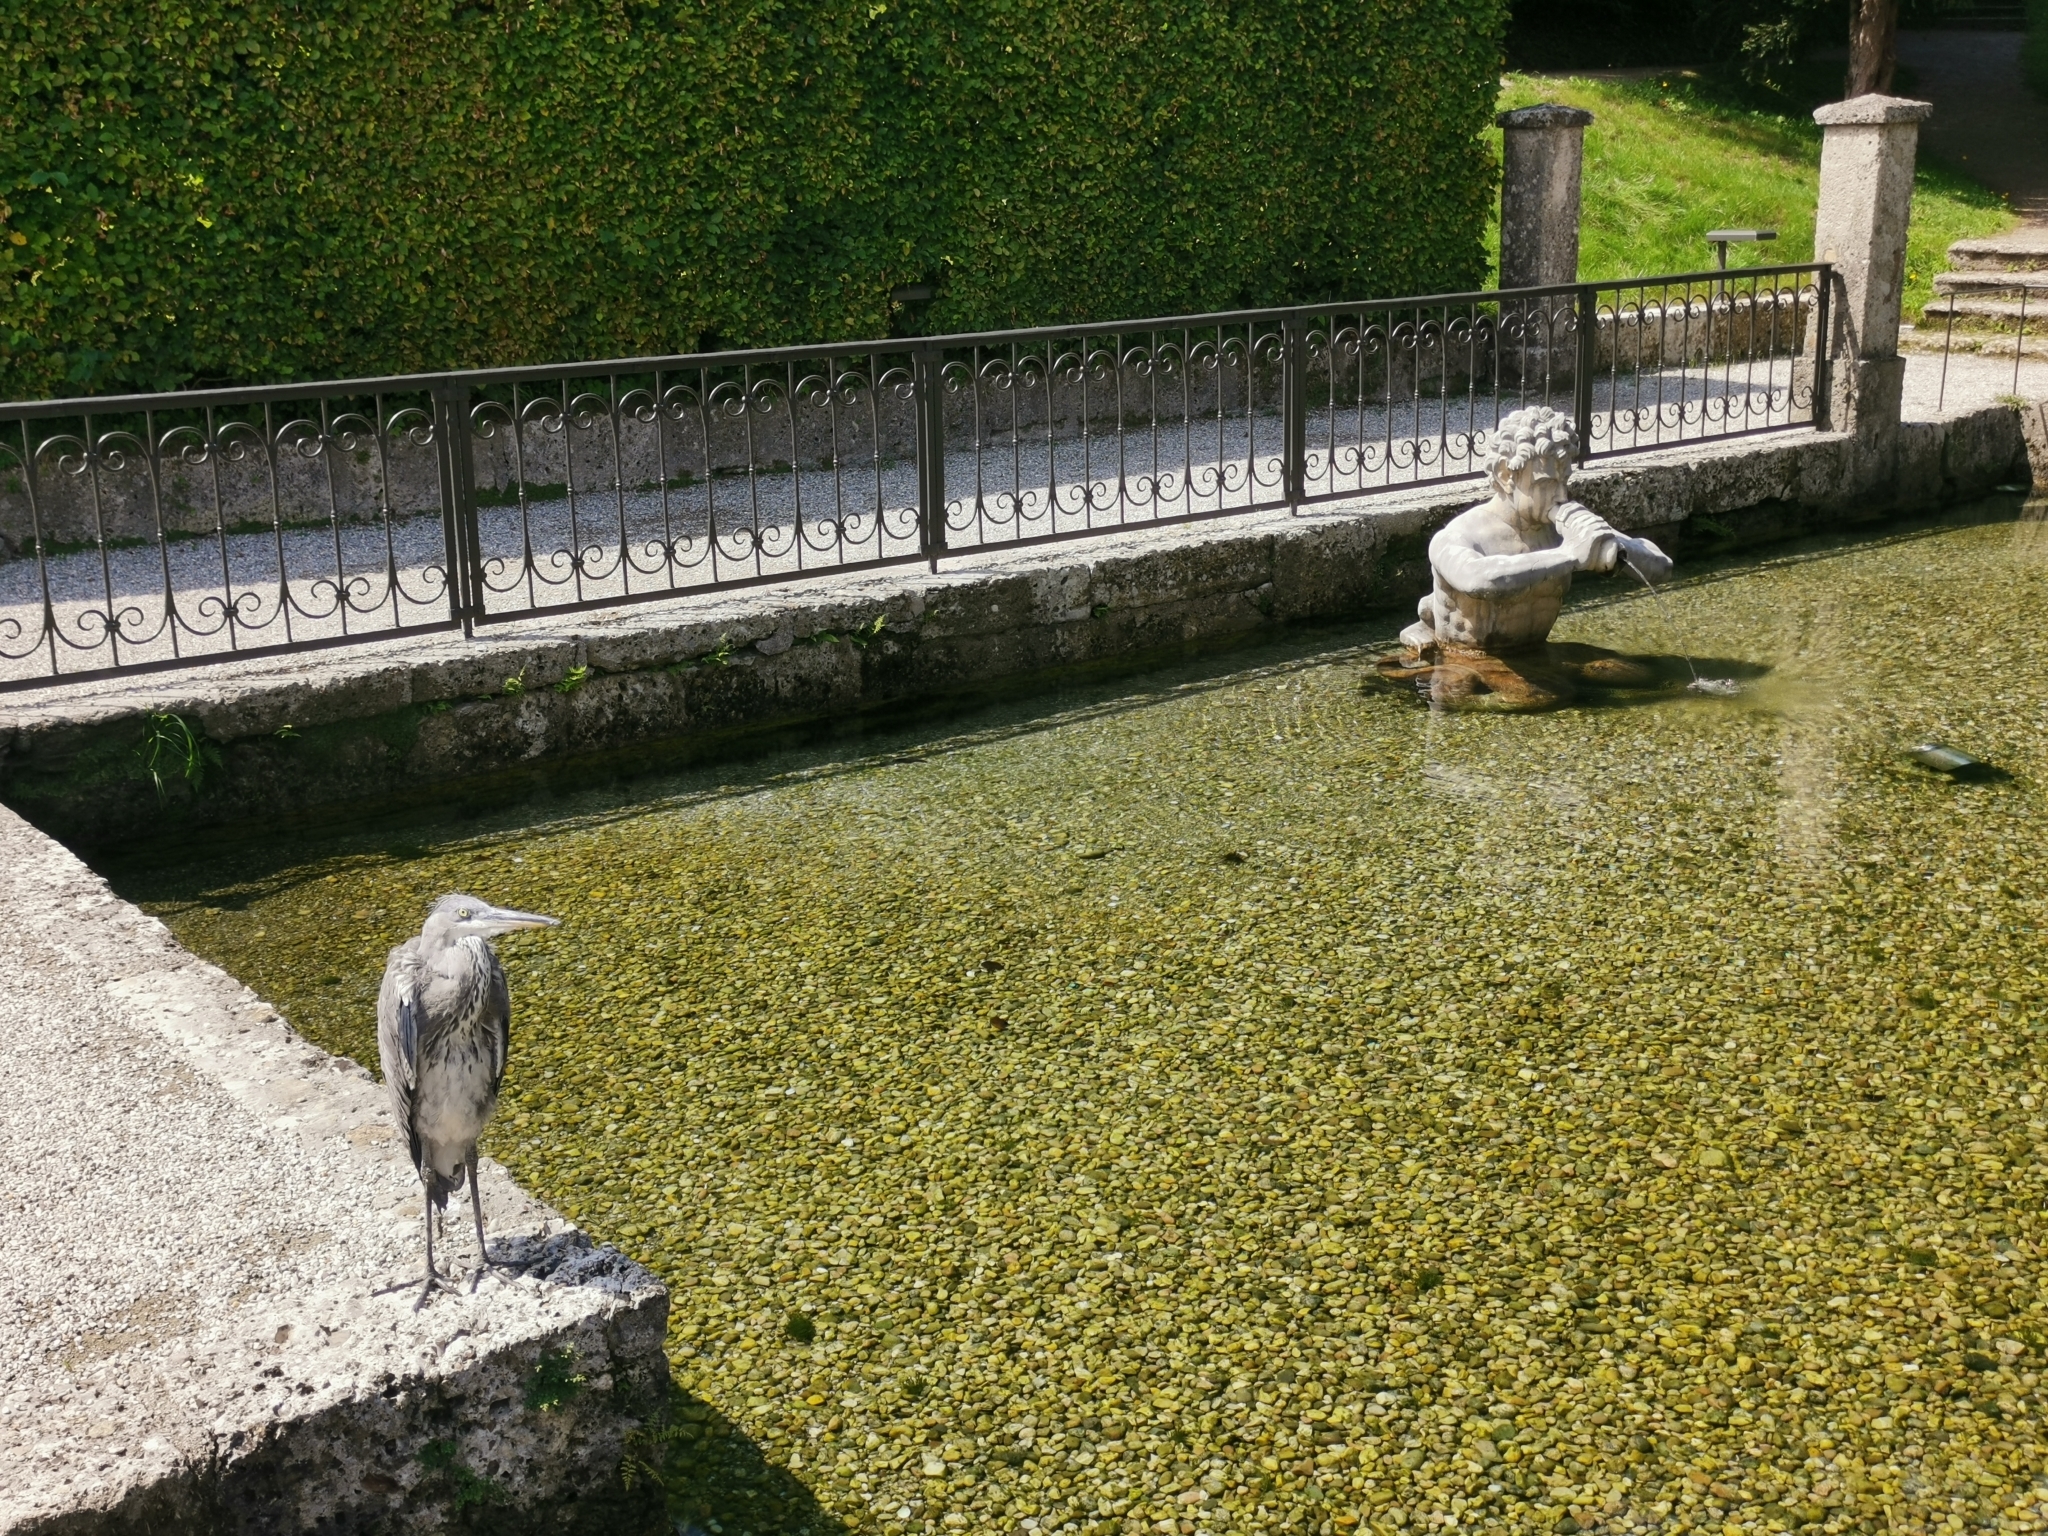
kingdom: Animalia
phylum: Chordata
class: Aves
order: Pelecaniformes
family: Ardeidae
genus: Ardea
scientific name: Ardea cinerea
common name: Grey heron
